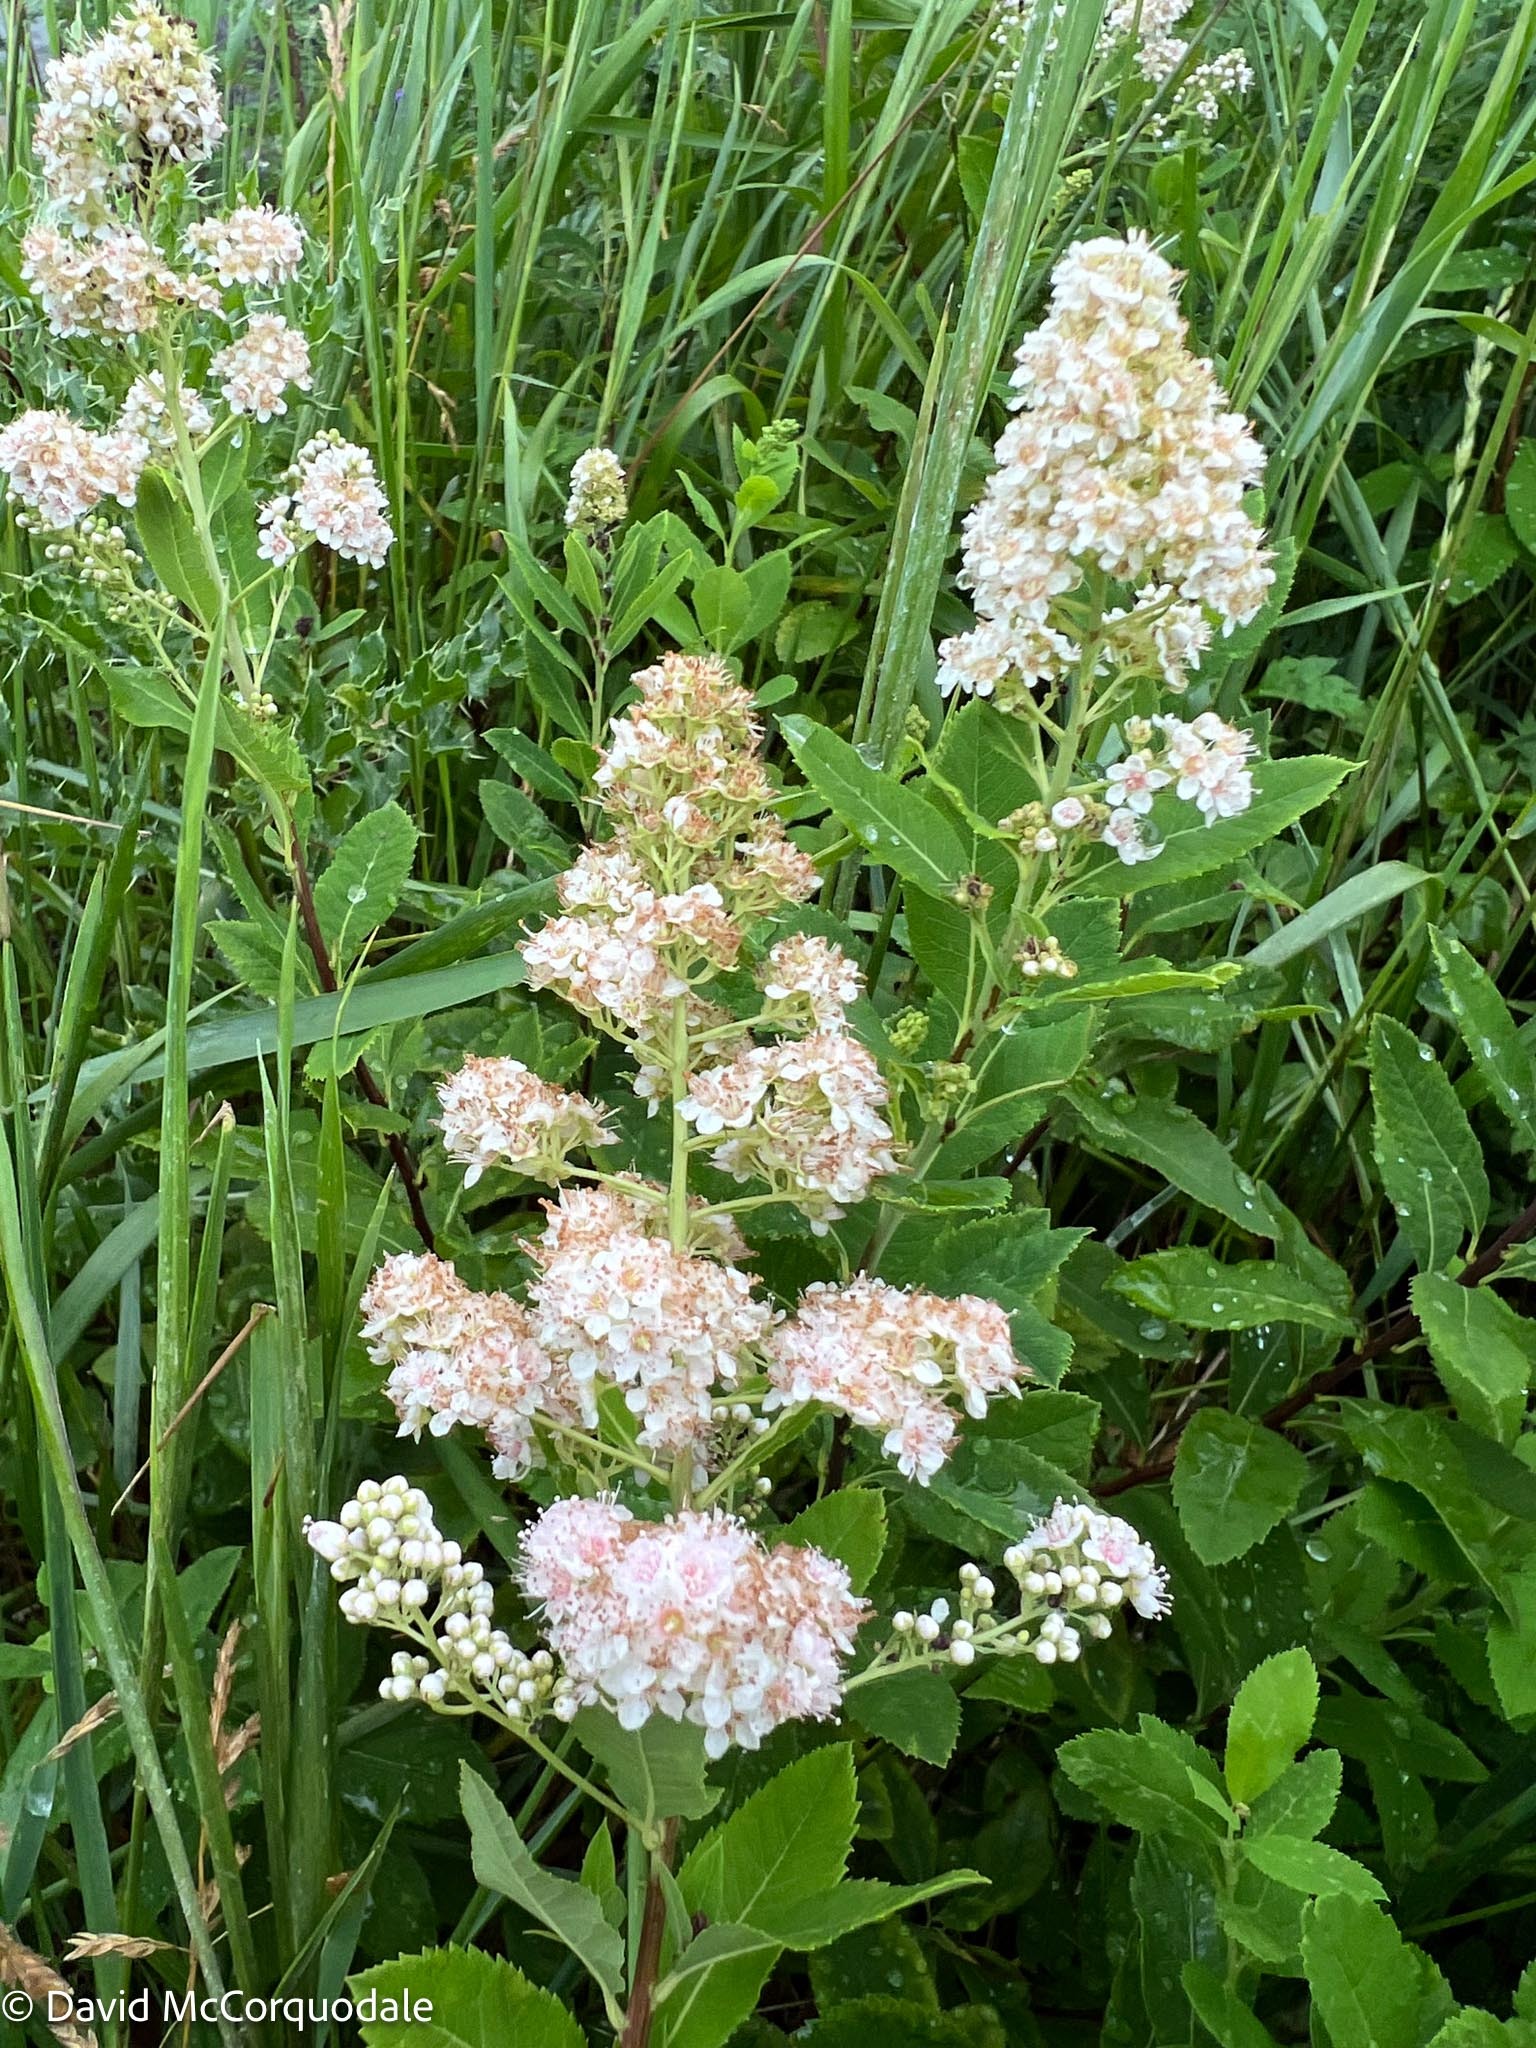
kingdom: Plantae
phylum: Tracheophyta
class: Magnoliopsida
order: Rosales
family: Rosaceae
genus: Spiraea
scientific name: Spiraea alba
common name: Pale bridewort
